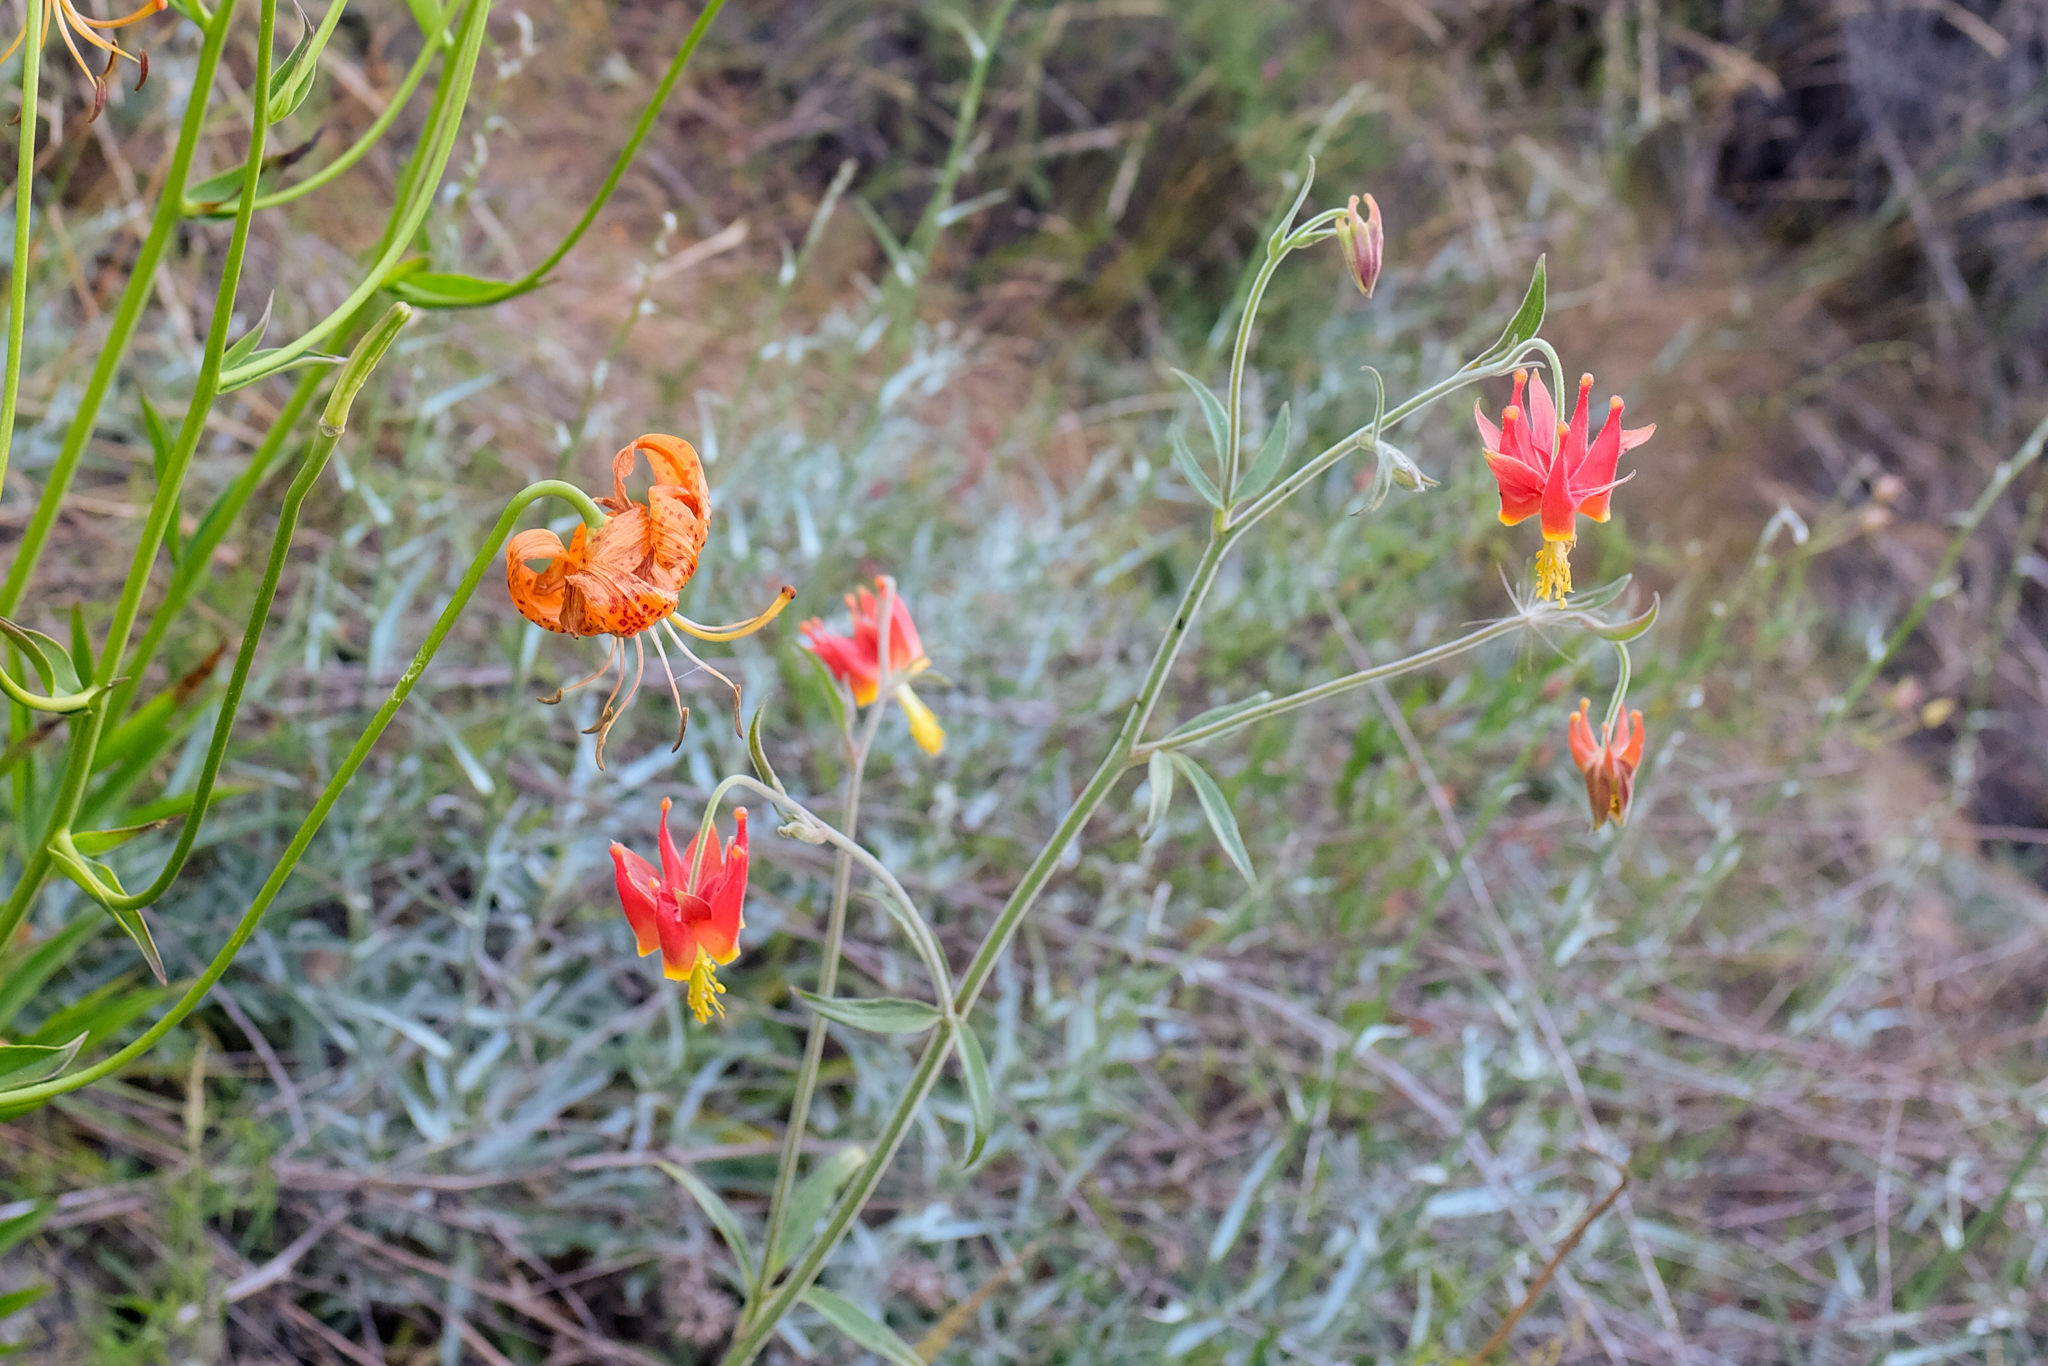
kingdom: Plantae
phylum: Tracheophyta
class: Magnoliopsida
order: Ranunculales
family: Ranunculaceae
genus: Aquilegia
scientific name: Aquilegia eximia
